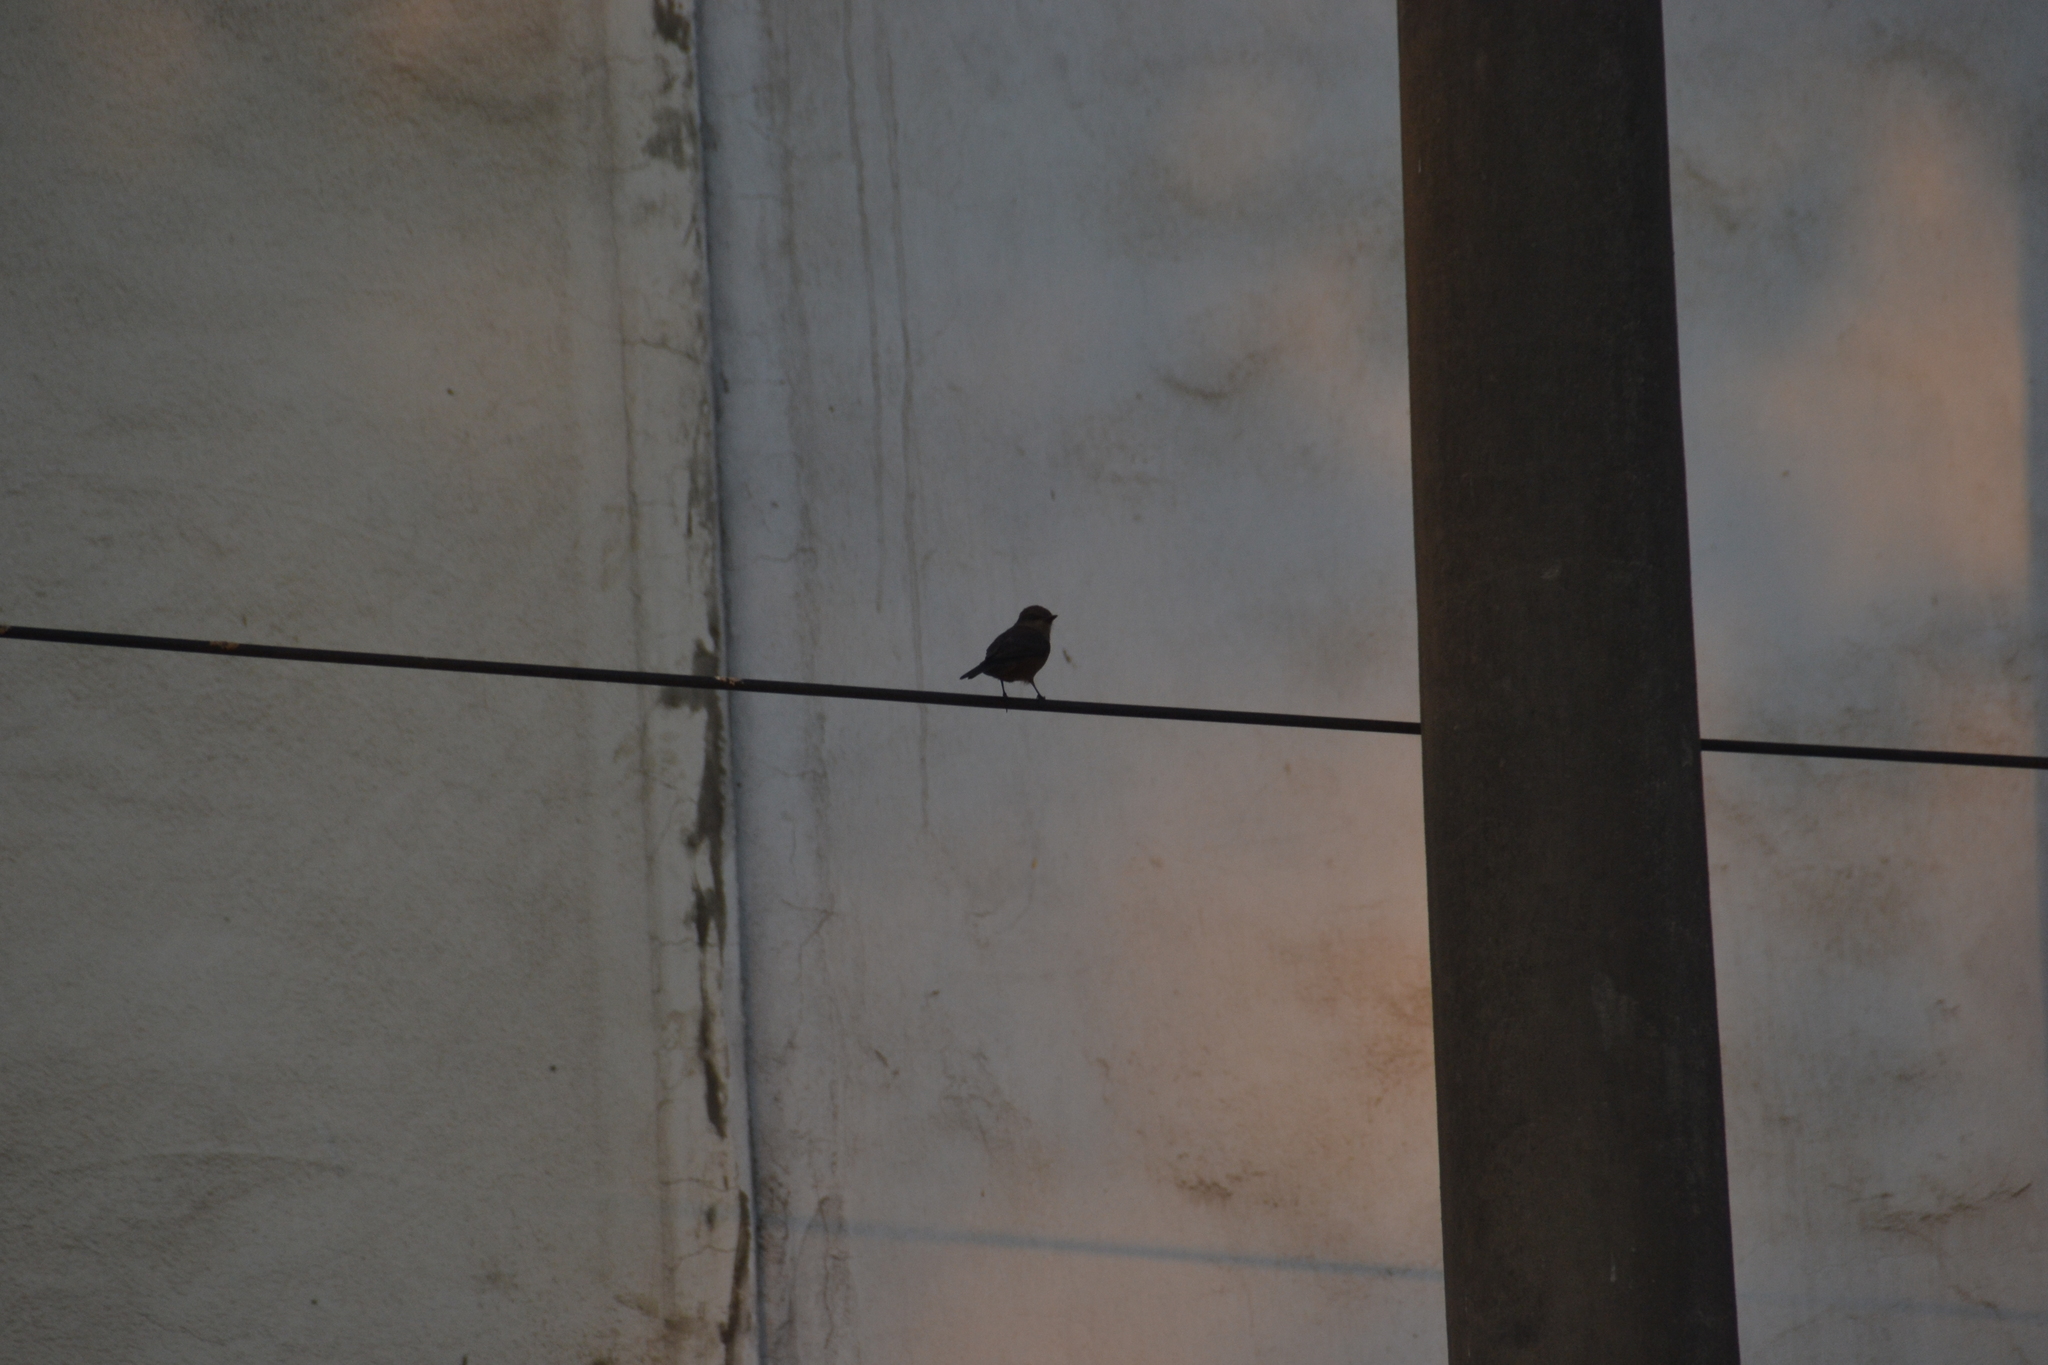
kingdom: Animalia
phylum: Chordata
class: Aves
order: Passeriformes
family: Tyrannidae
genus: Pyrocephalus
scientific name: Pyrocephalus rubinus
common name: Vermilion flycatcher
